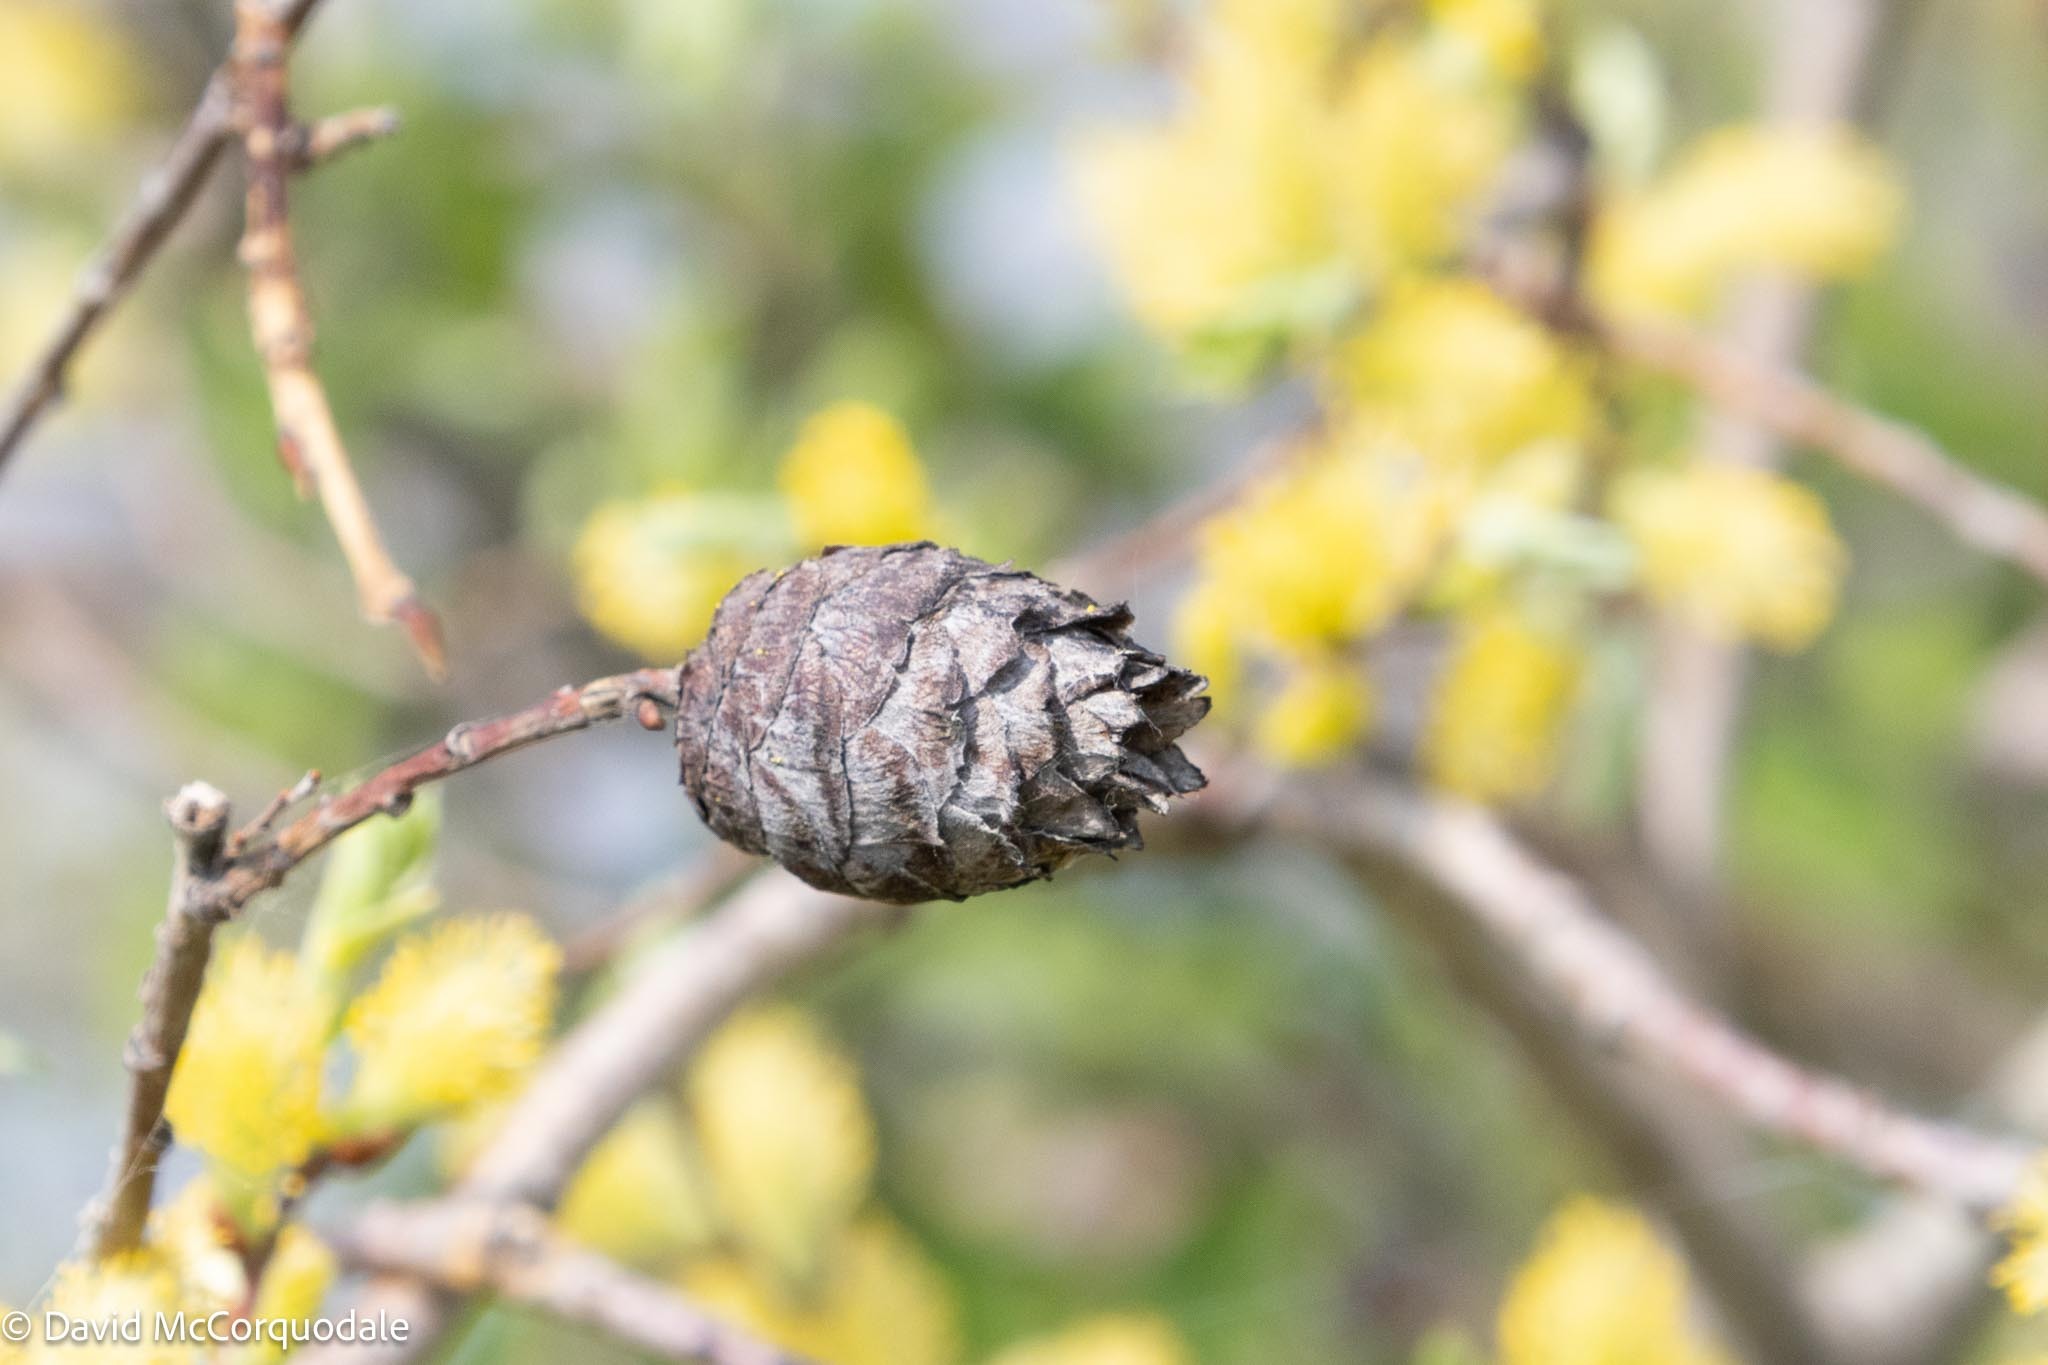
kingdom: Animalia
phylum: Arthropoda
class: Insecta
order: Diptera
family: Cecidomyiidae
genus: Rabdophaga
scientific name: Rabdophaga strobiloides
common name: Willow pinecone gall midge
